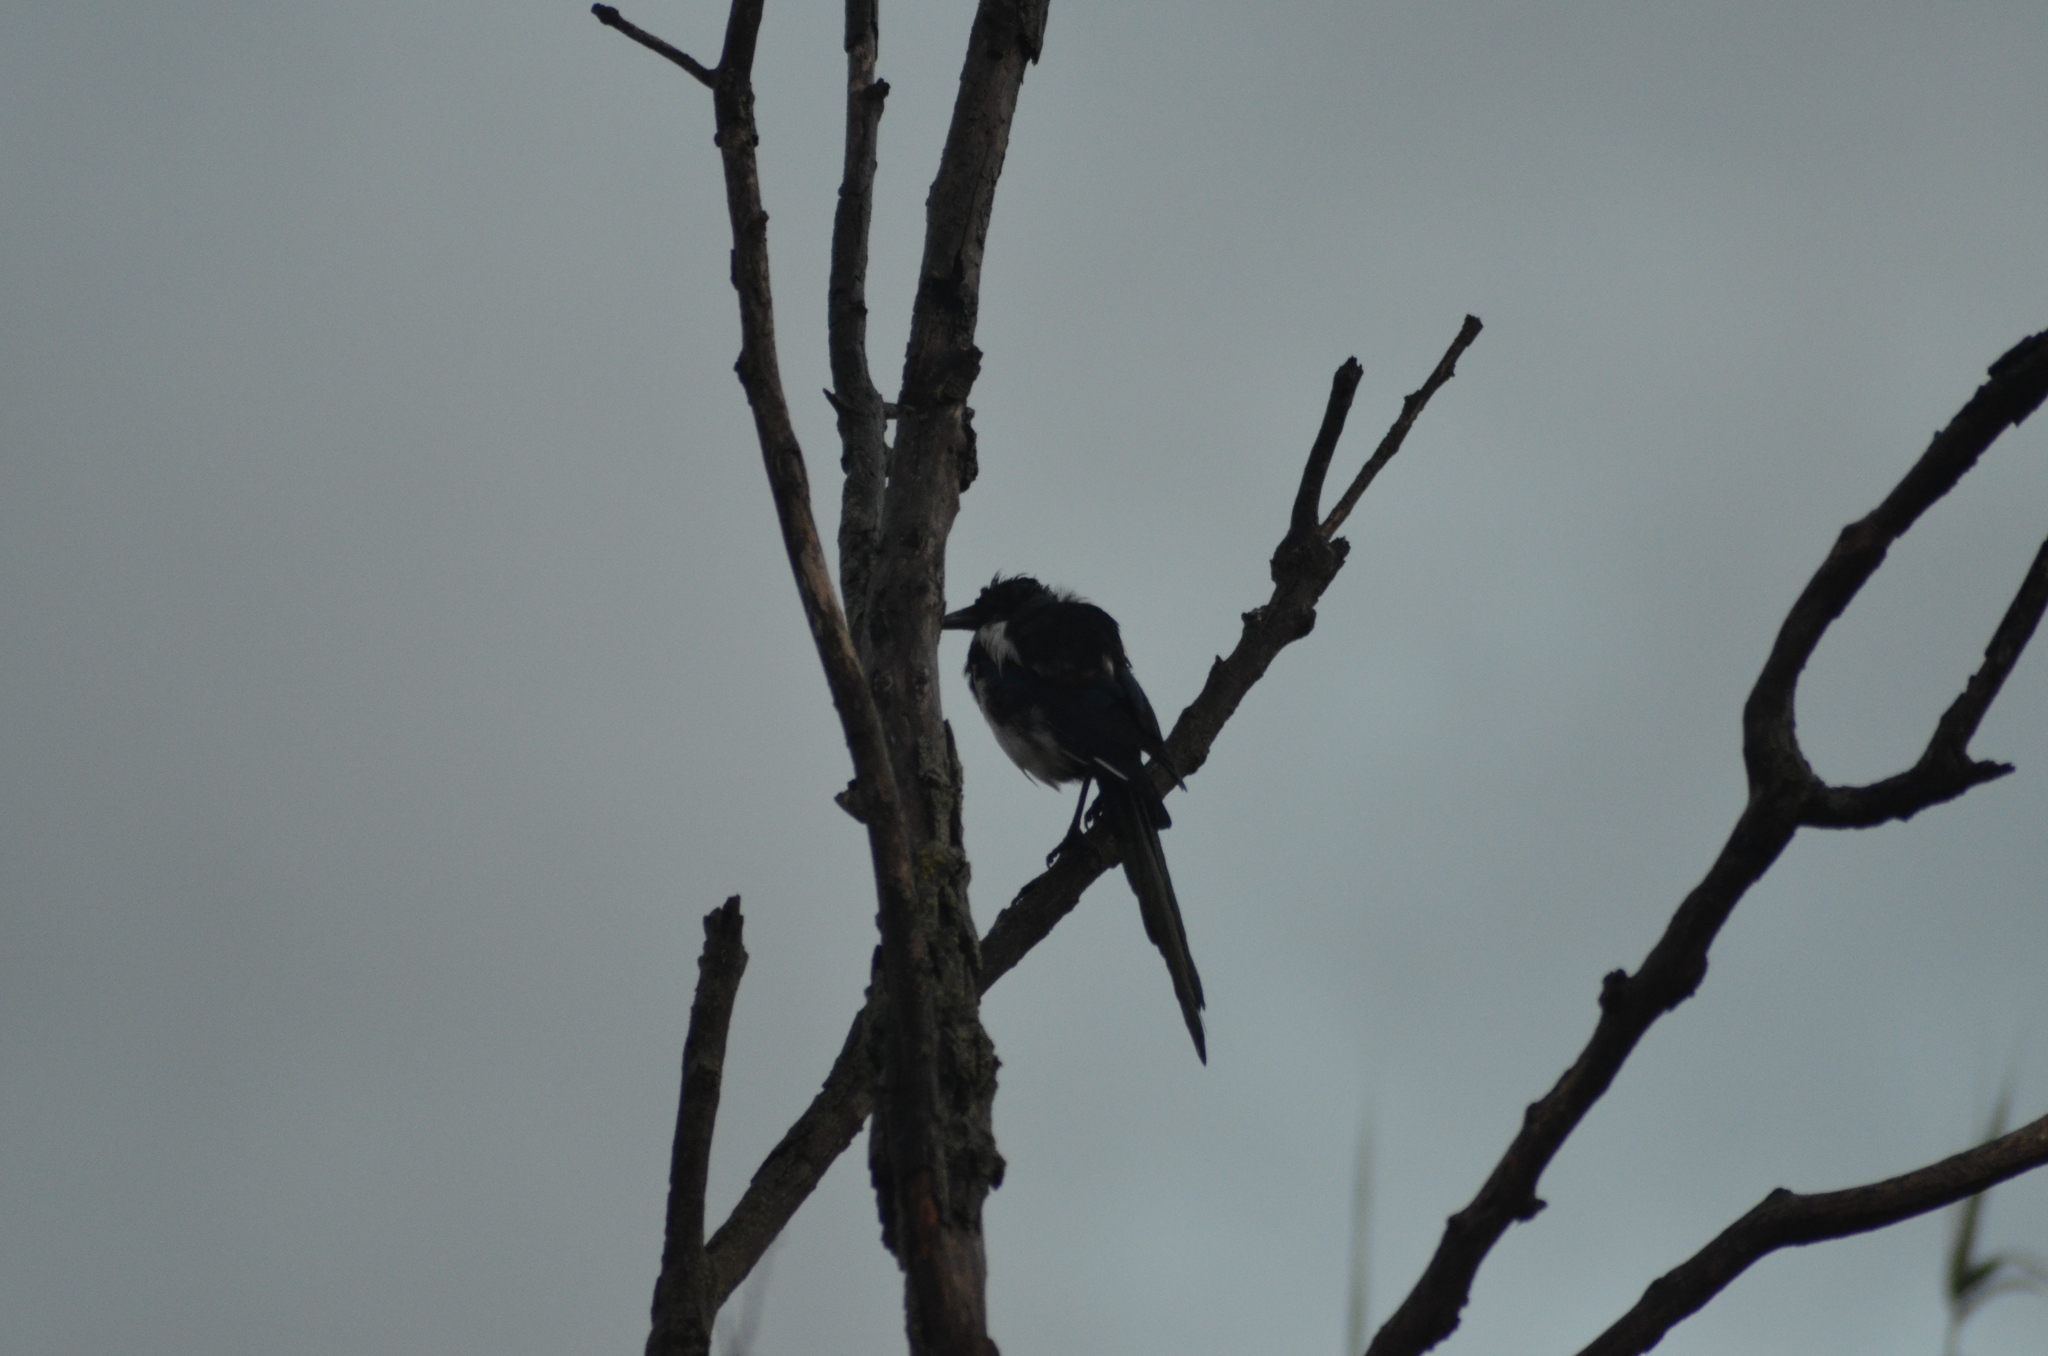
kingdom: Animalia
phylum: Chordata
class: Aves
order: Passeriformes
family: Corvidae
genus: Pica
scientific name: Pica pica
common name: Eurasian magpie
